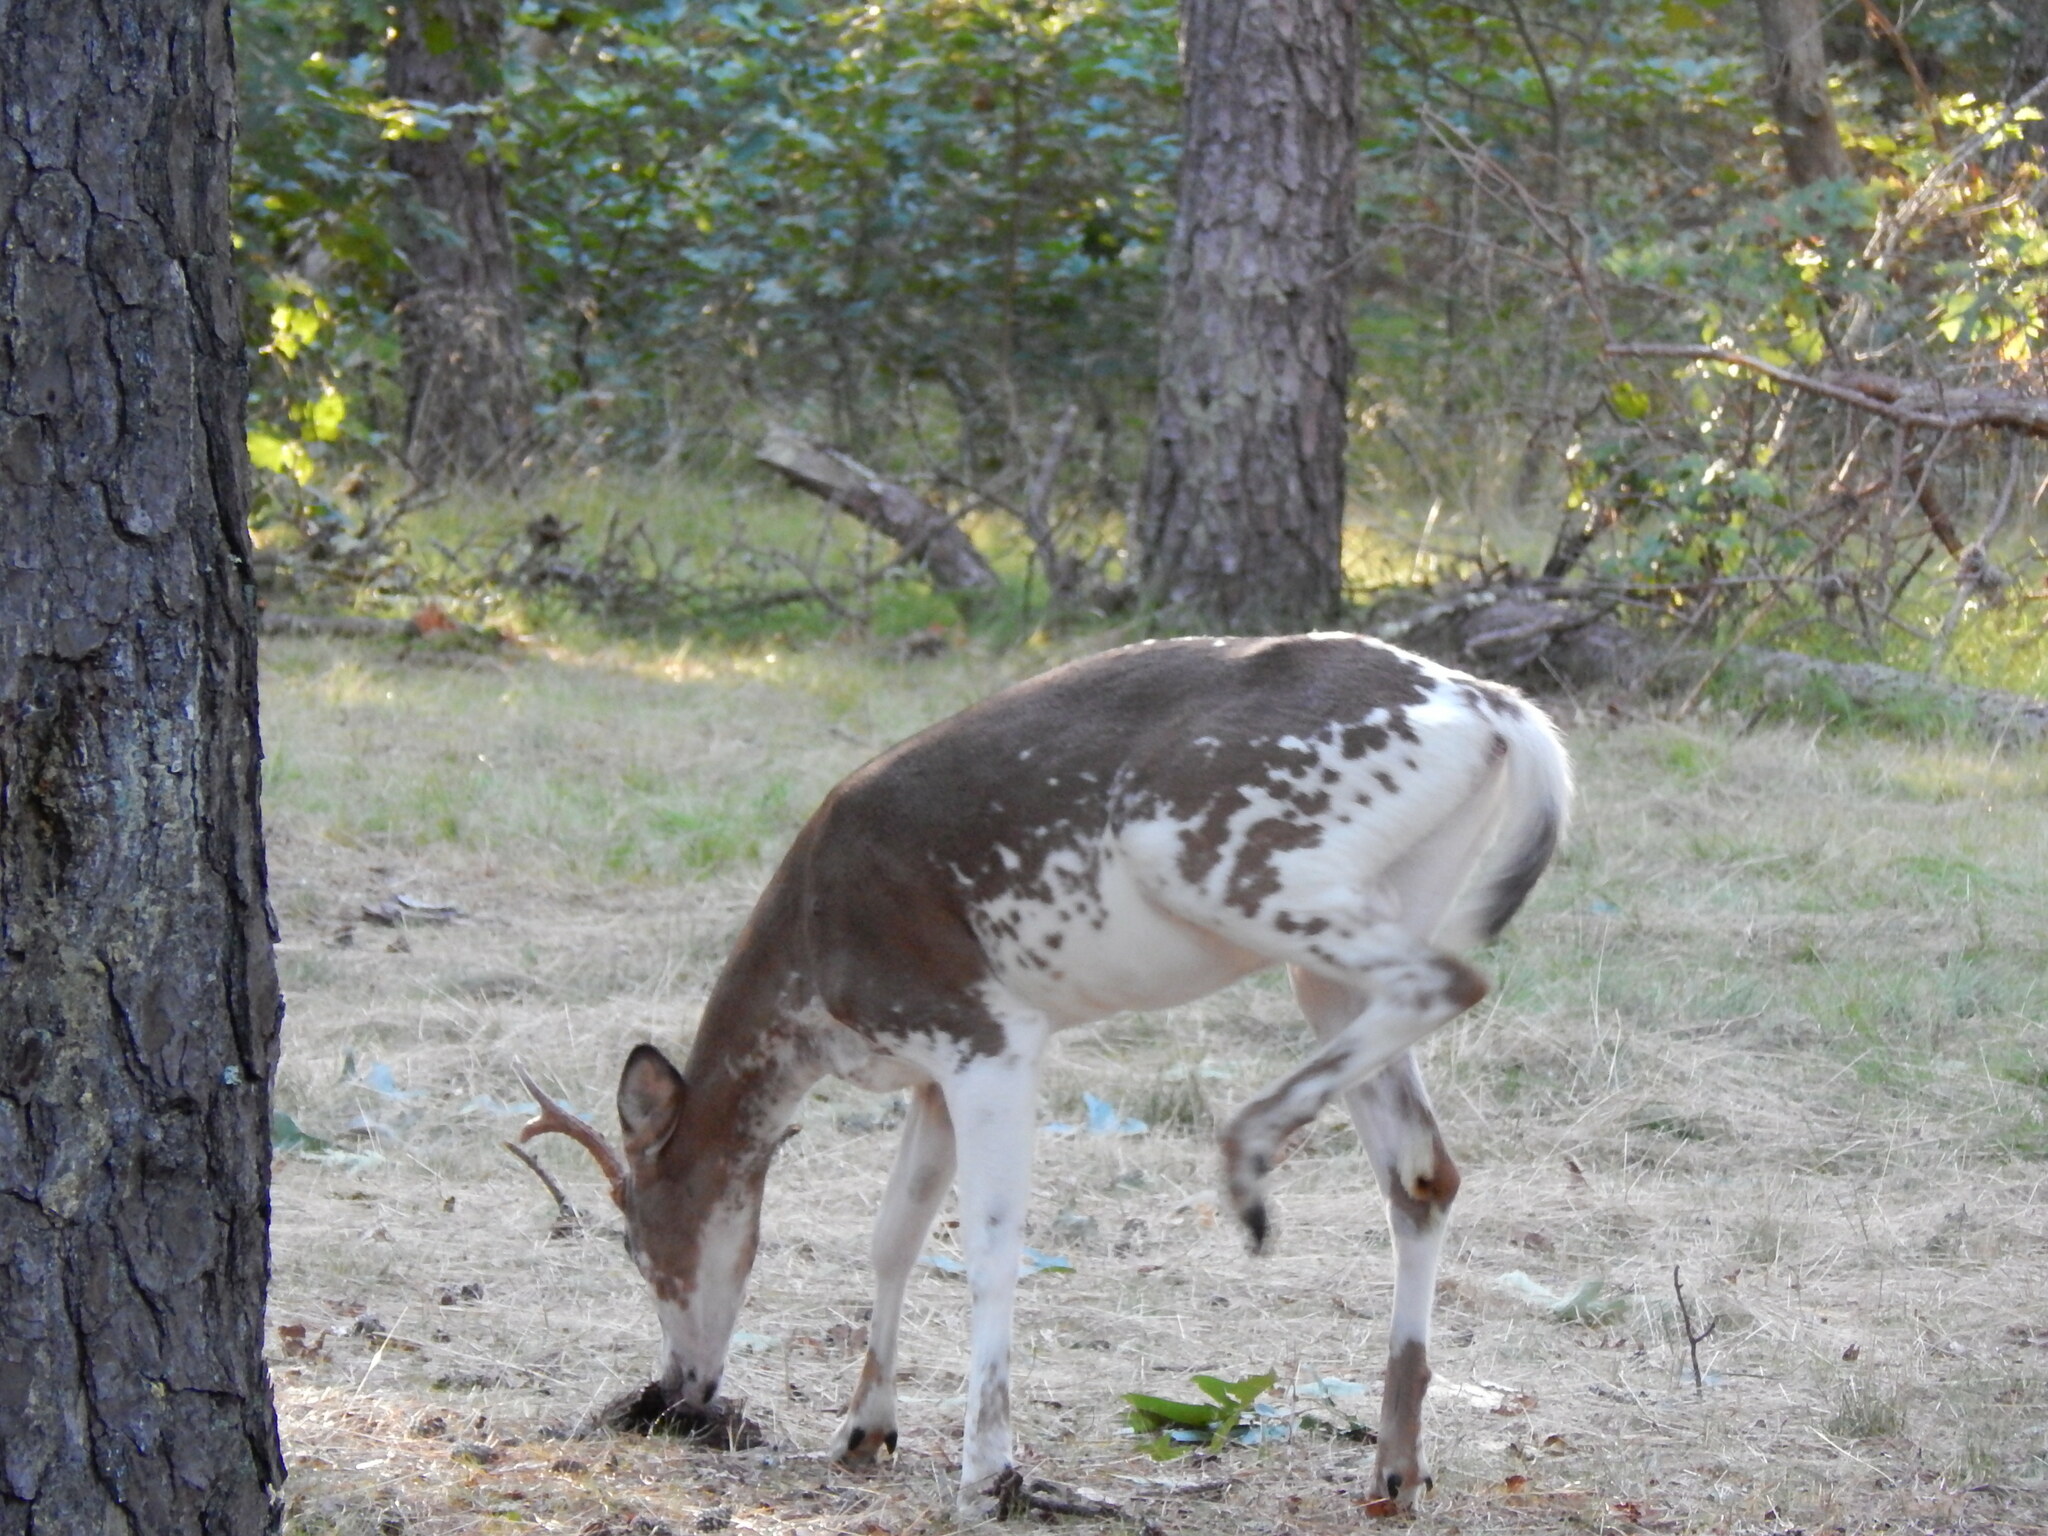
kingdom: Animalia
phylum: Chordata
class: Mammalia
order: Artiodactyla
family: Cervidae
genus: Odocoileus
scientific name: Odocoileus virginianus
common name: White-tailed deer
